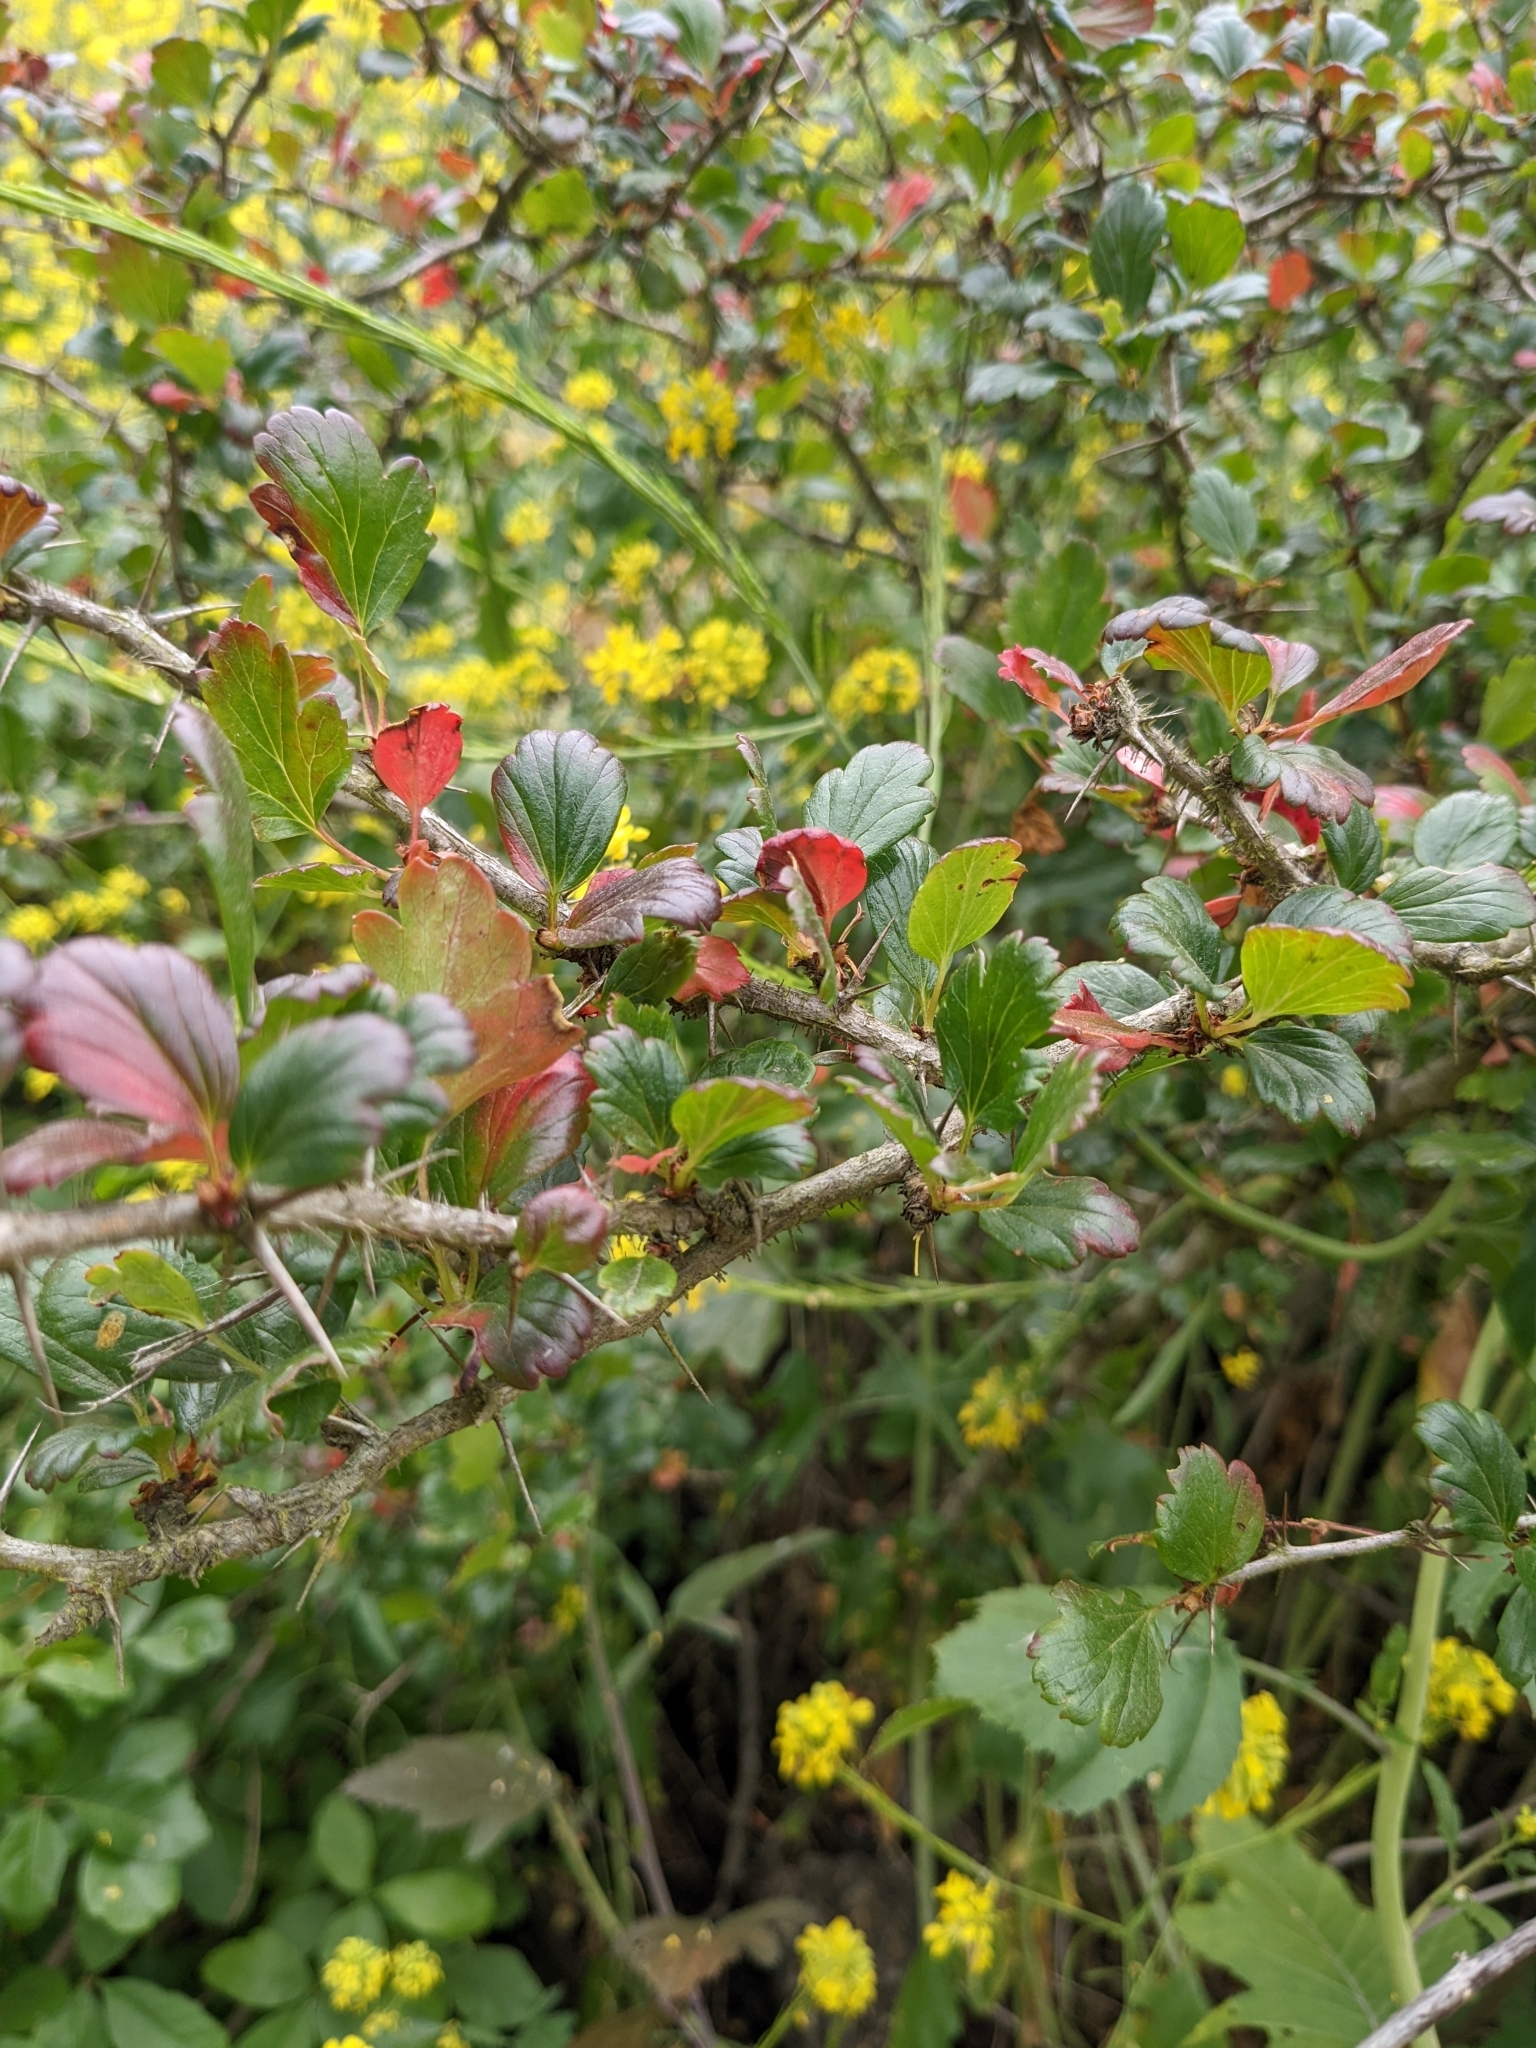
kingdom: Plantae
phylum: Tracheophyta
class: Magnoliopsida
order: Saxifragales
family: Grossulariaceae
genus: Ribes
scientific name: Ribes speciosum
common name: Fuchsia-flower gooseberry
